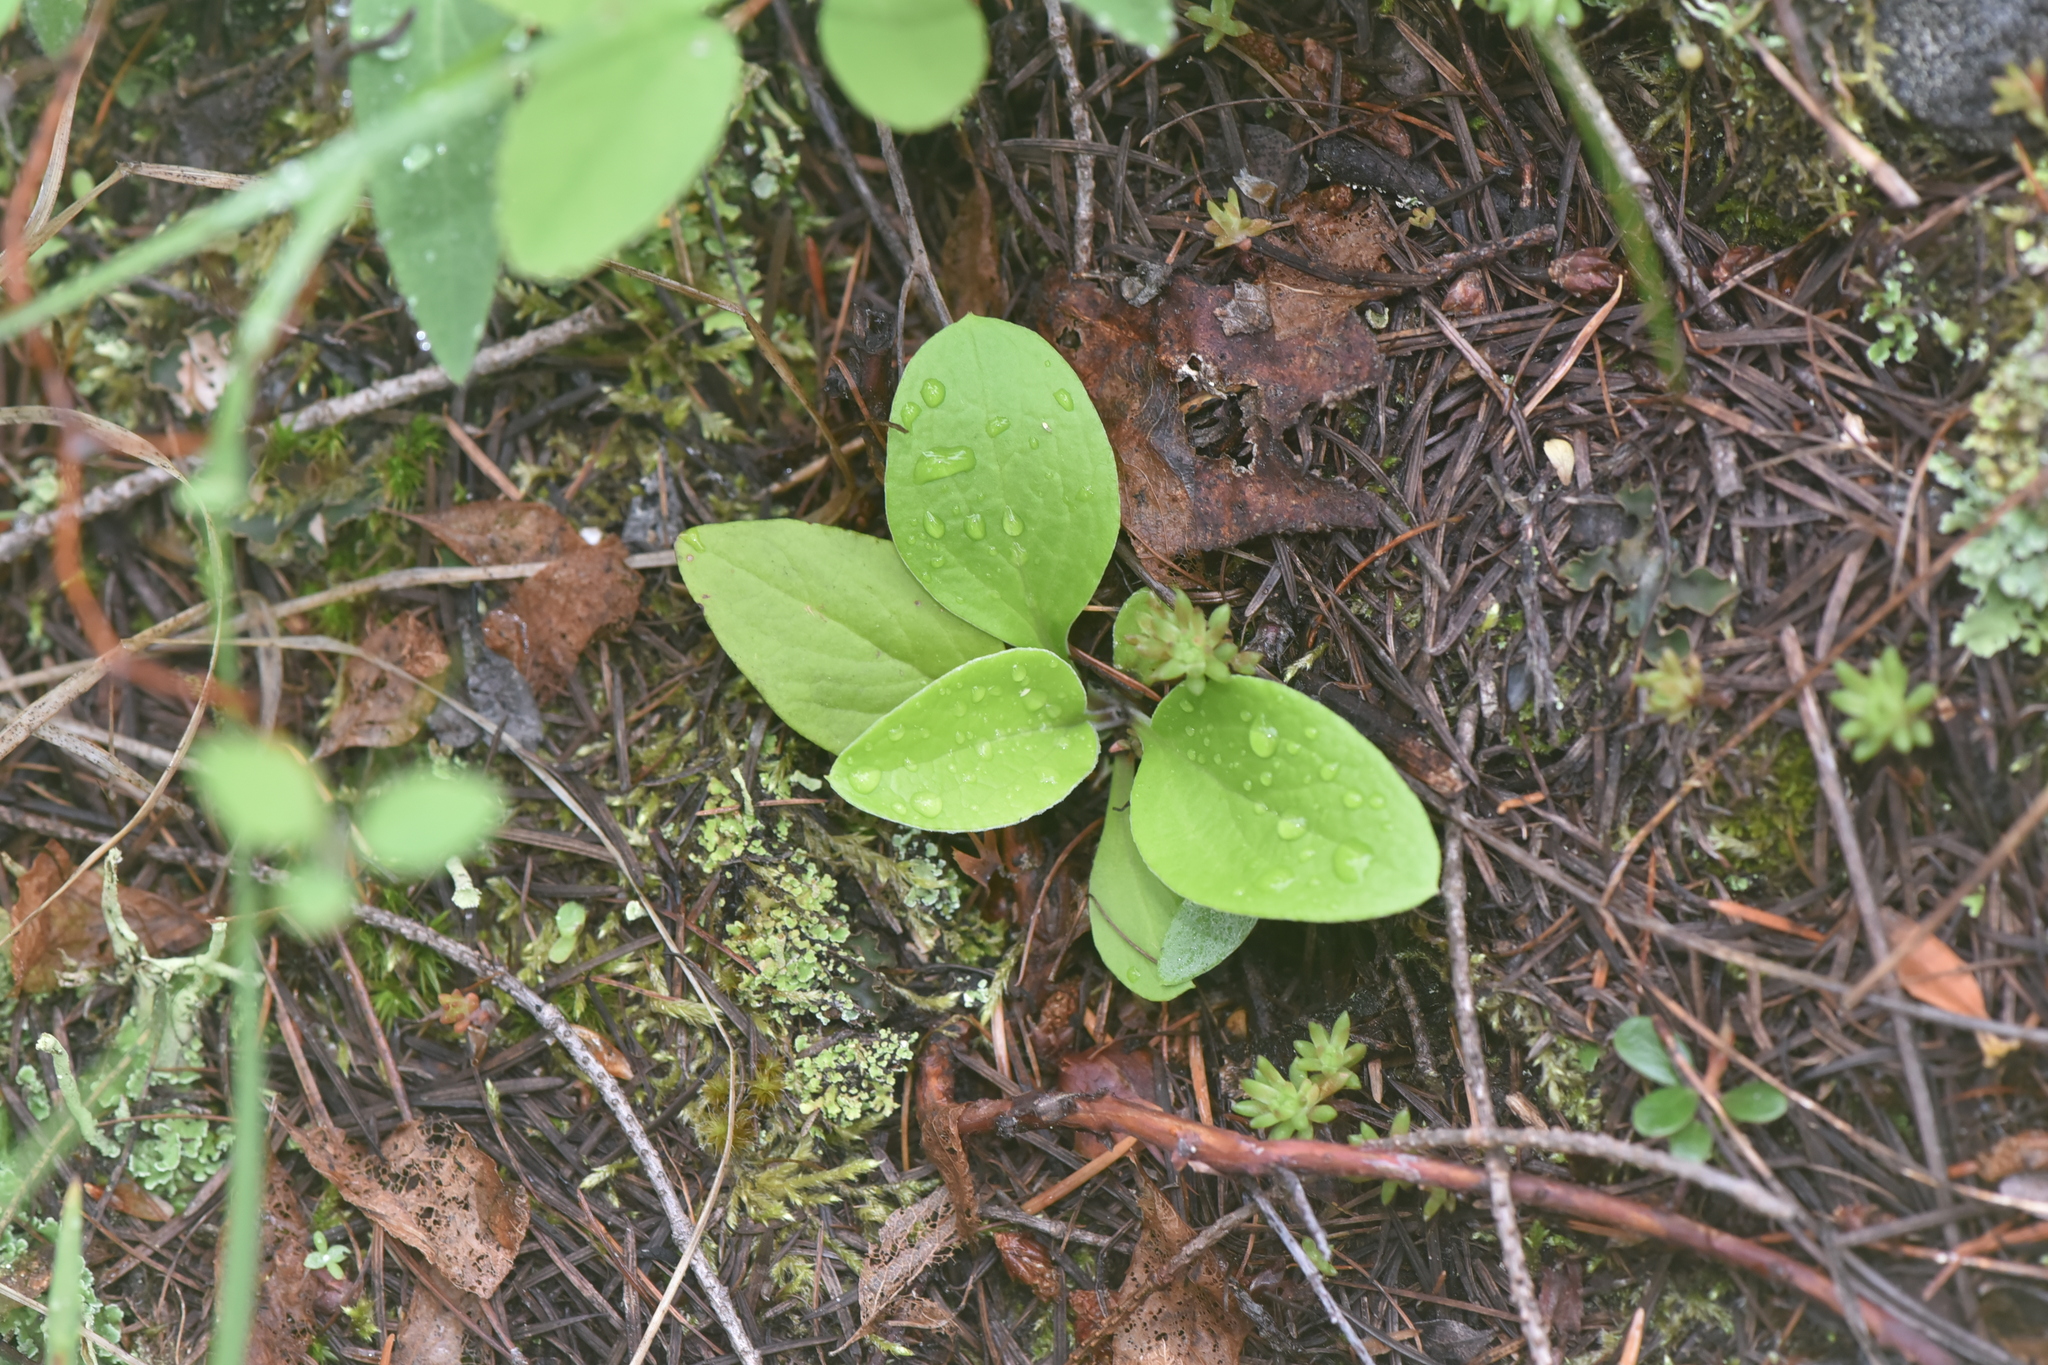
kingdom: Plantae
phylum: Tracheophyta
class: Magnoliopsida
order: Asterales
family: Asteraceae
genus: Antennaria
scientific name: Antennaria racemosa
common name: Racemose pussytoes
